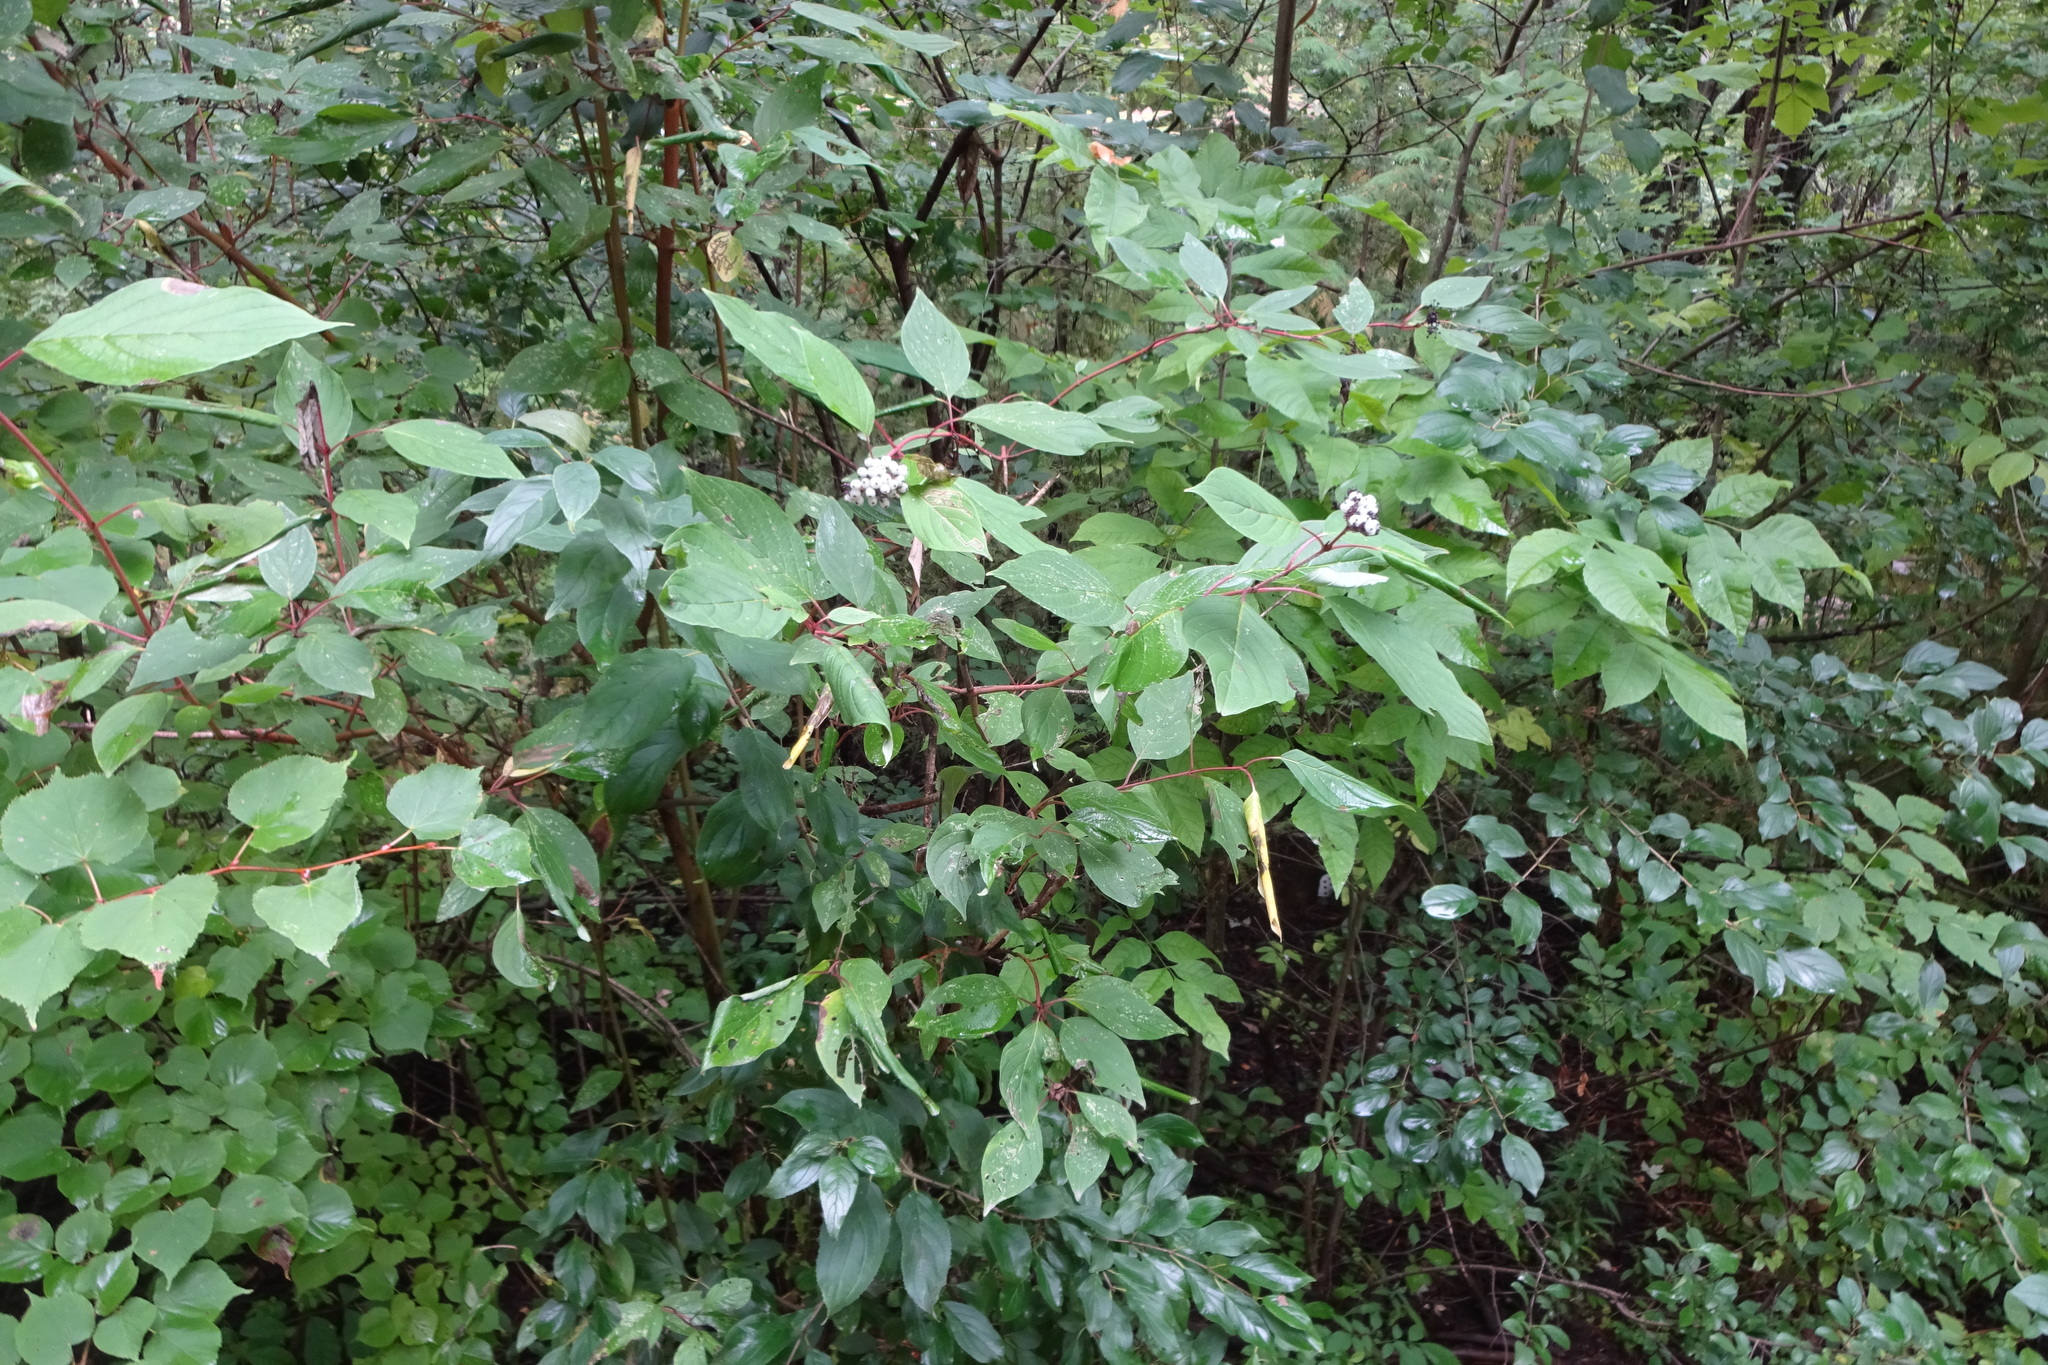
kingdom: Plantae
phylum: Tracheophyta
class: Magnoliopsida
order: Cornales
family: Cornaceae
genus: Cornus
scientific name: Cornus sericea
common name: Red-osier dogwood
